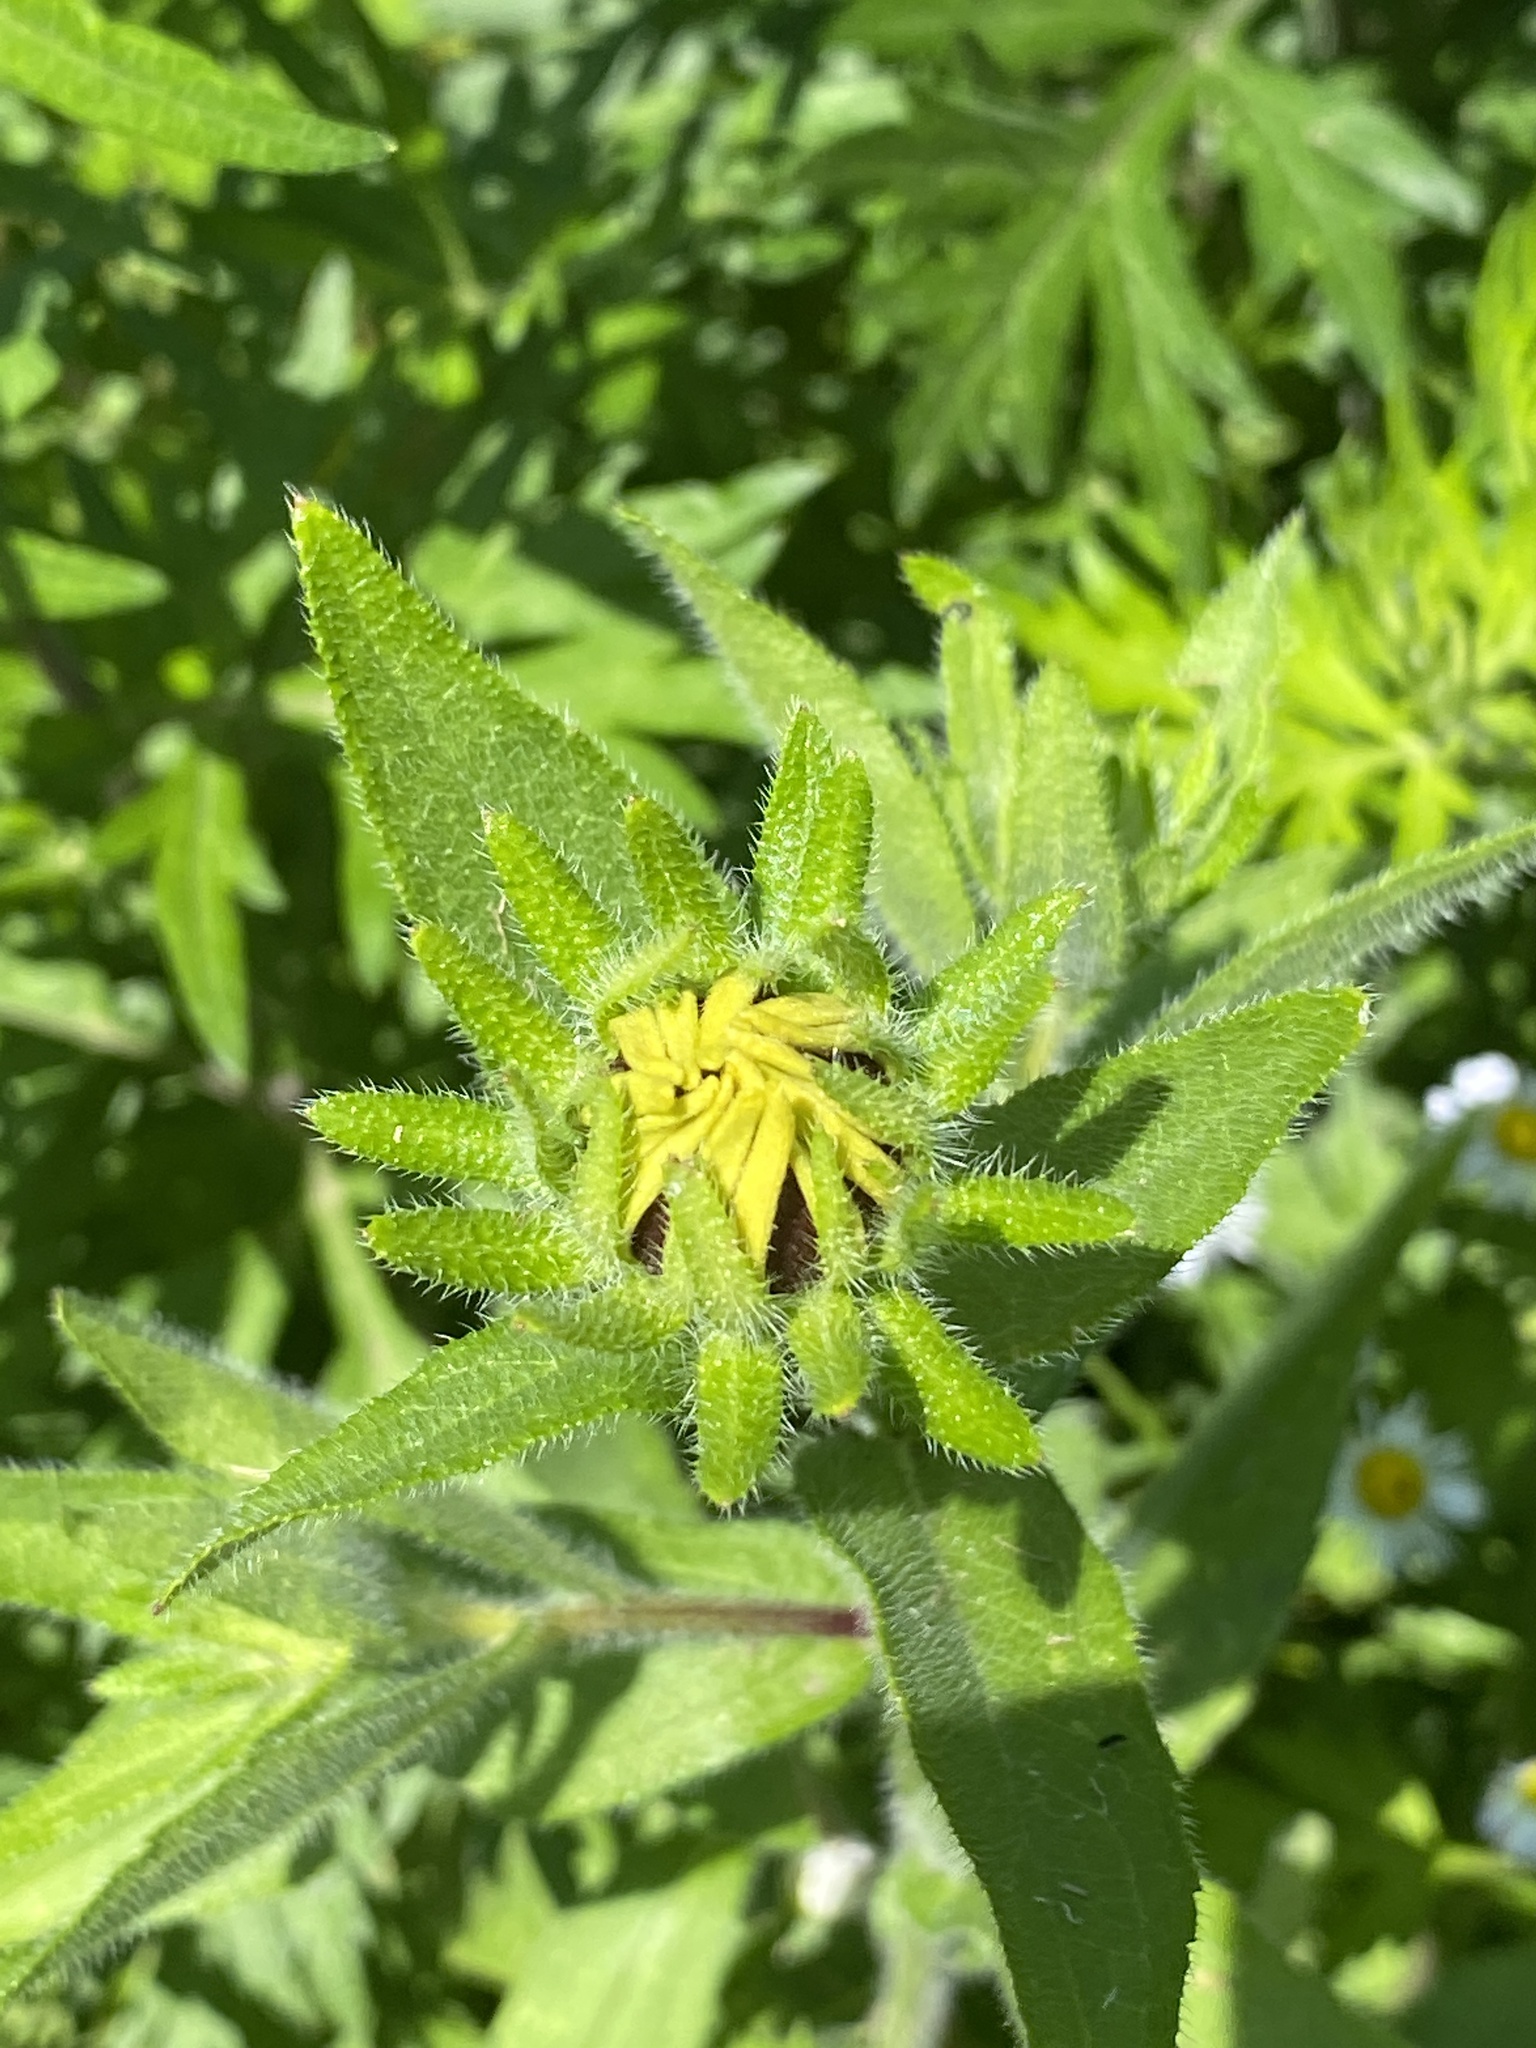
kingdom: Plantae
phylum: Tracheophyta
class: Magnoliopsida
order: Asterales
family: Asteraceae
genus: Rudbeckia
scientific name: Rudbeckia hirta
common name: Black-eyed-susan
